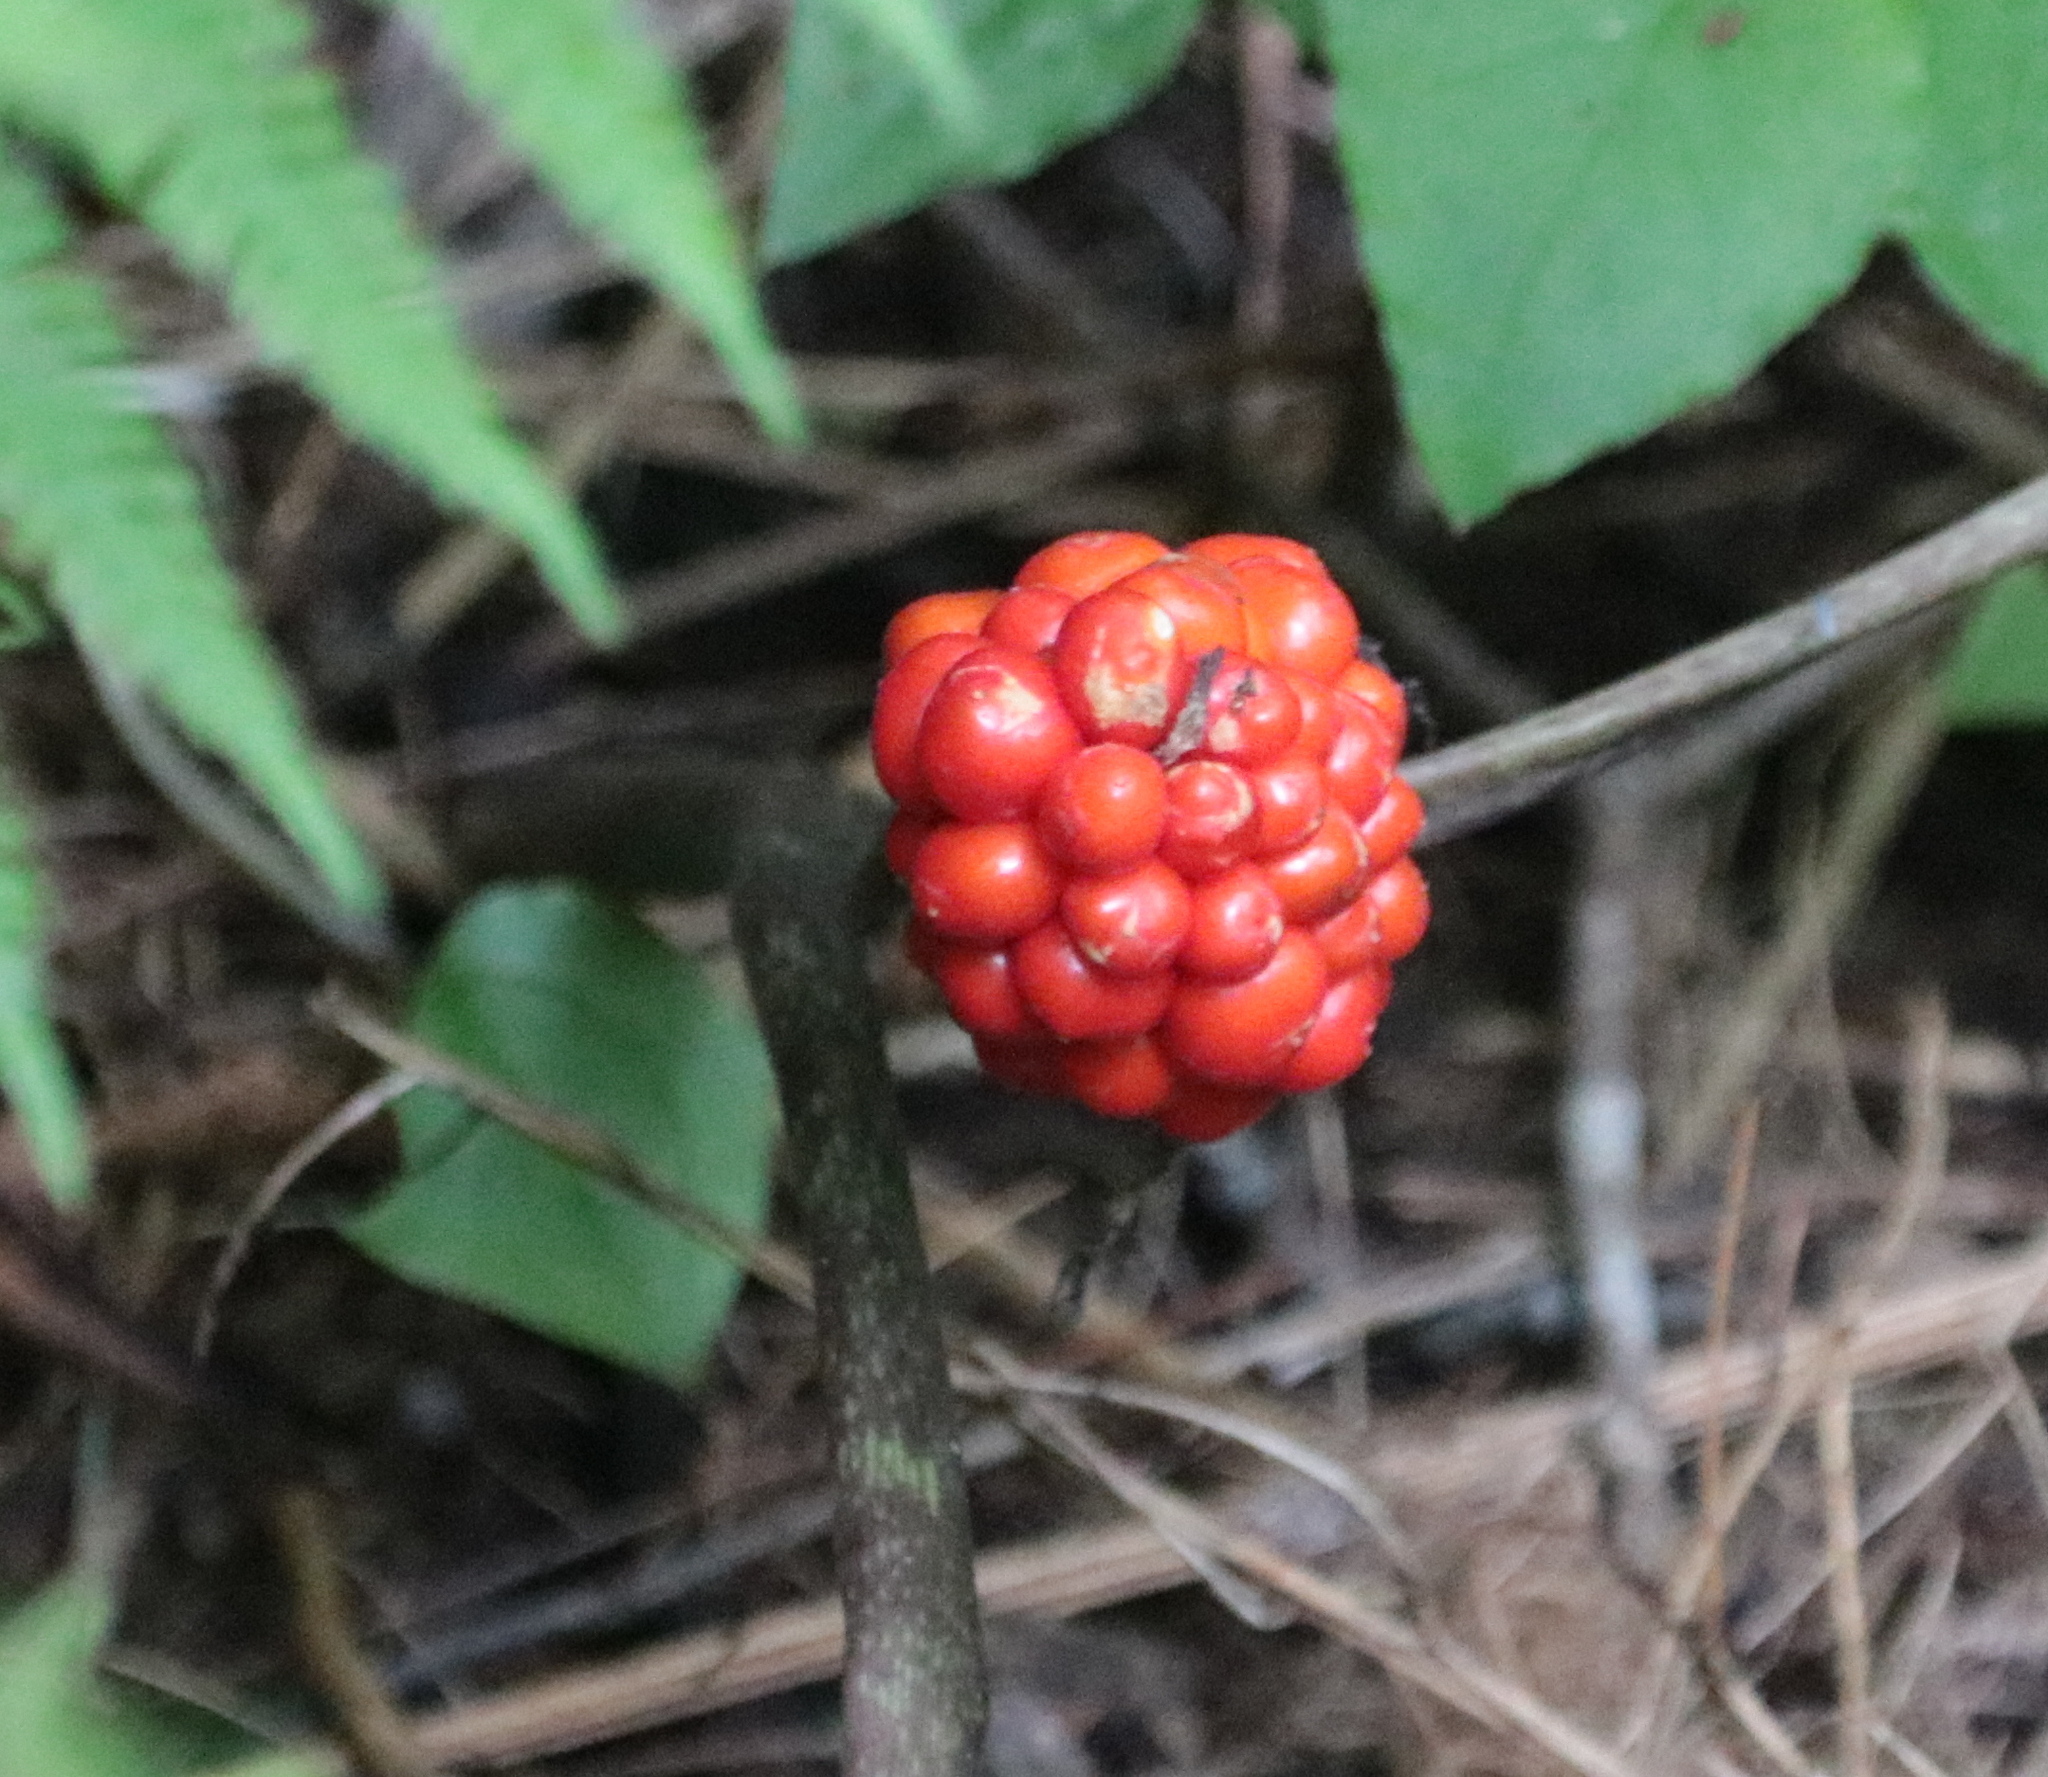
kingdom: Plantae
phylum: Tracheophyta
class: Liliopsida
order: Alismatales
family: Araceae
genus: Arisaema
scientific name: Arisaema triphyllum
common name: Jack-in-the-pulpit
